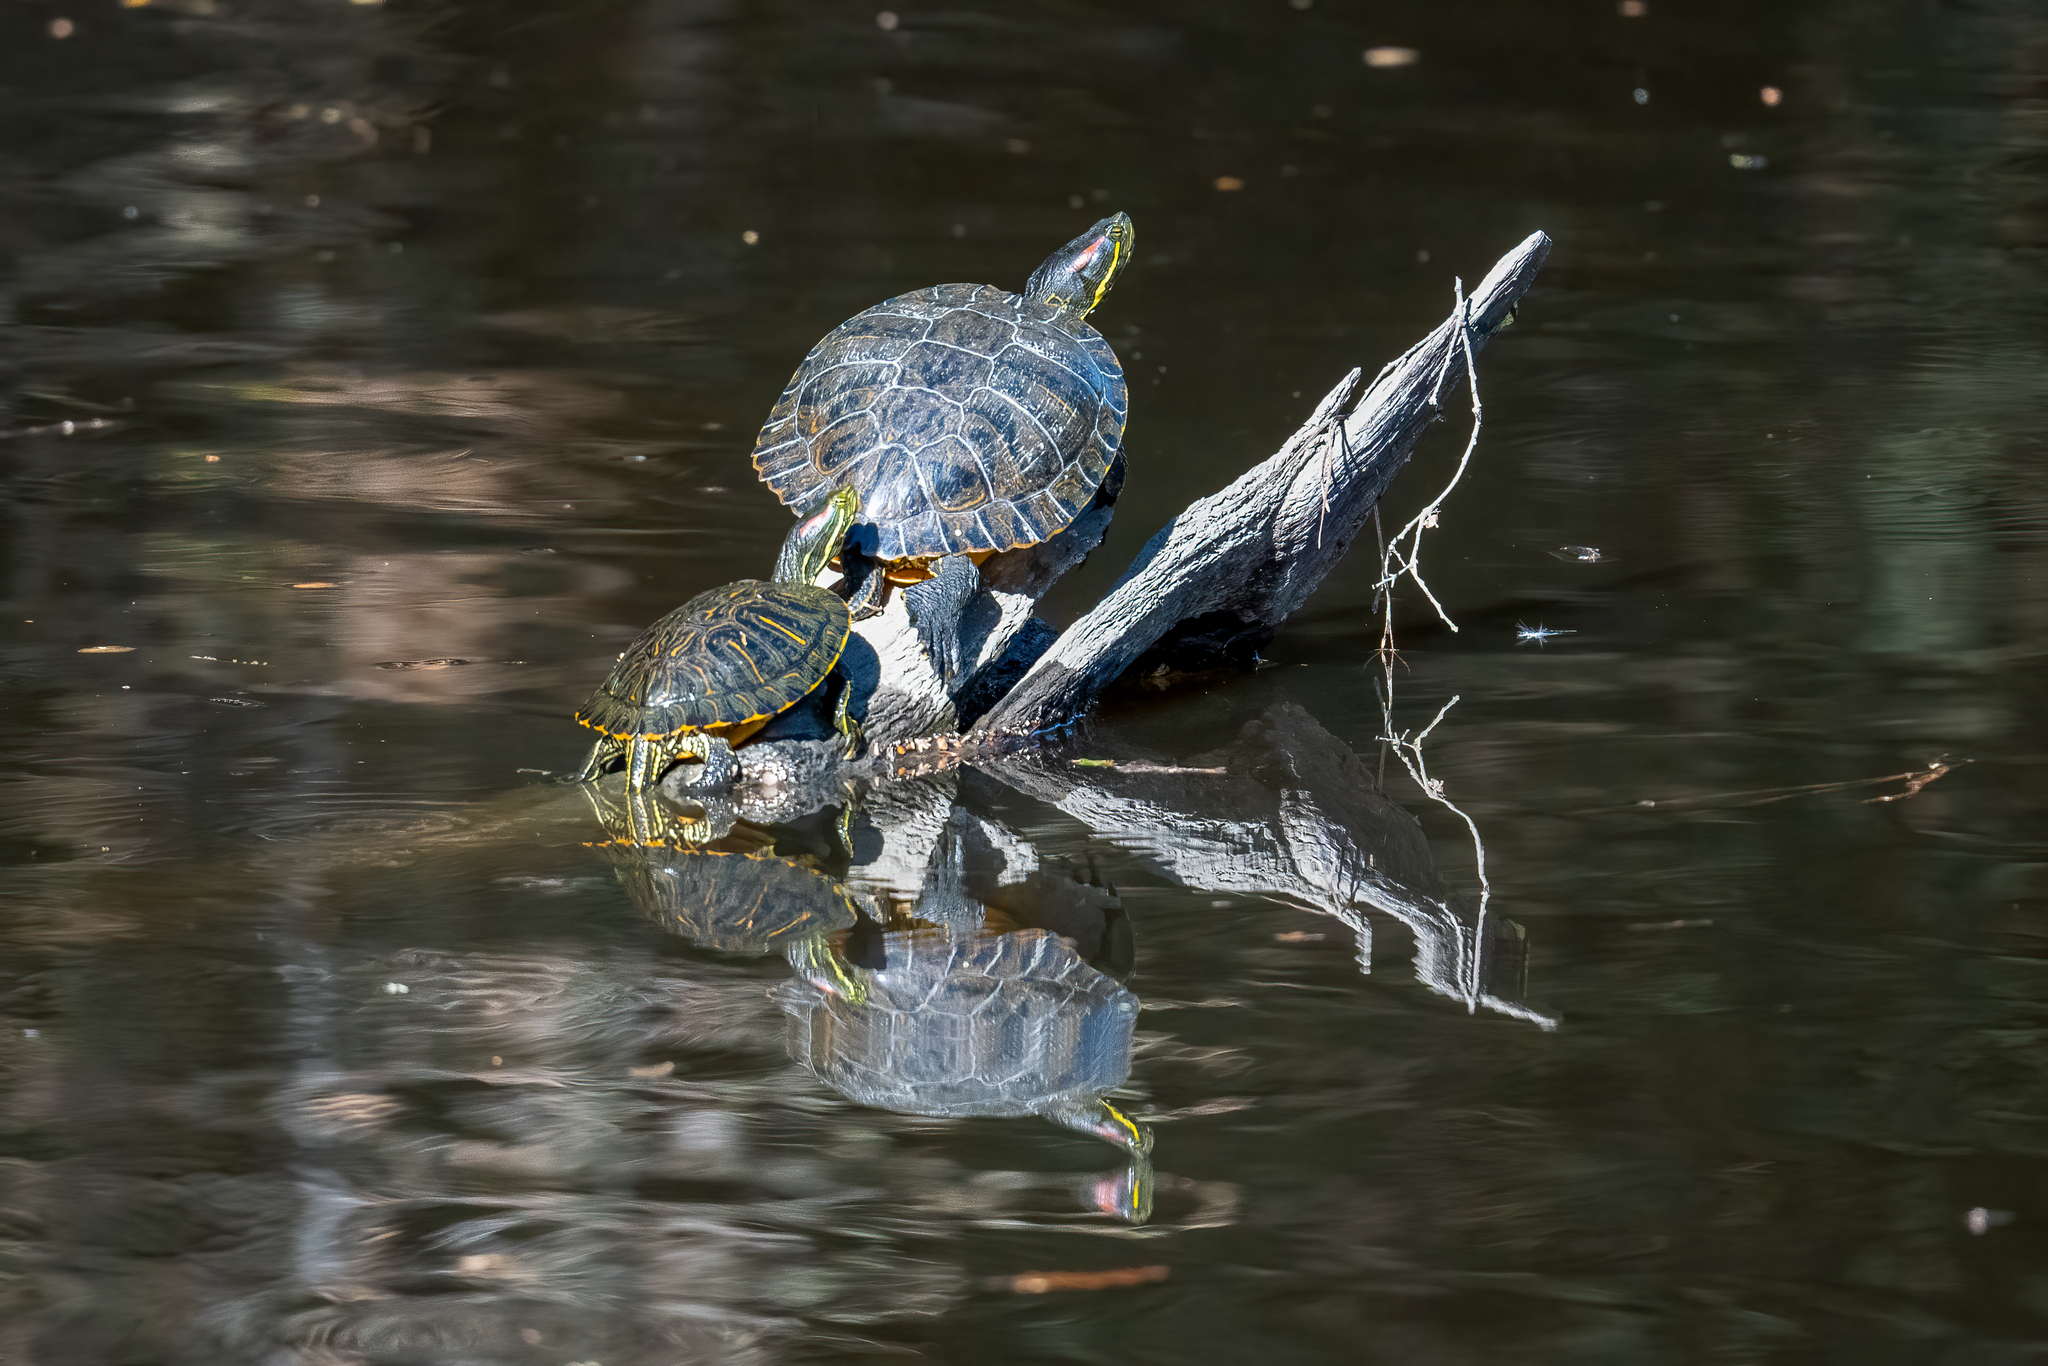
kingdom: Animalia
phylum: Chordata
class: Testudines
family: Emydidae
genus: Trachemys
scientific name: Trachemys scripta
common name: Slider
